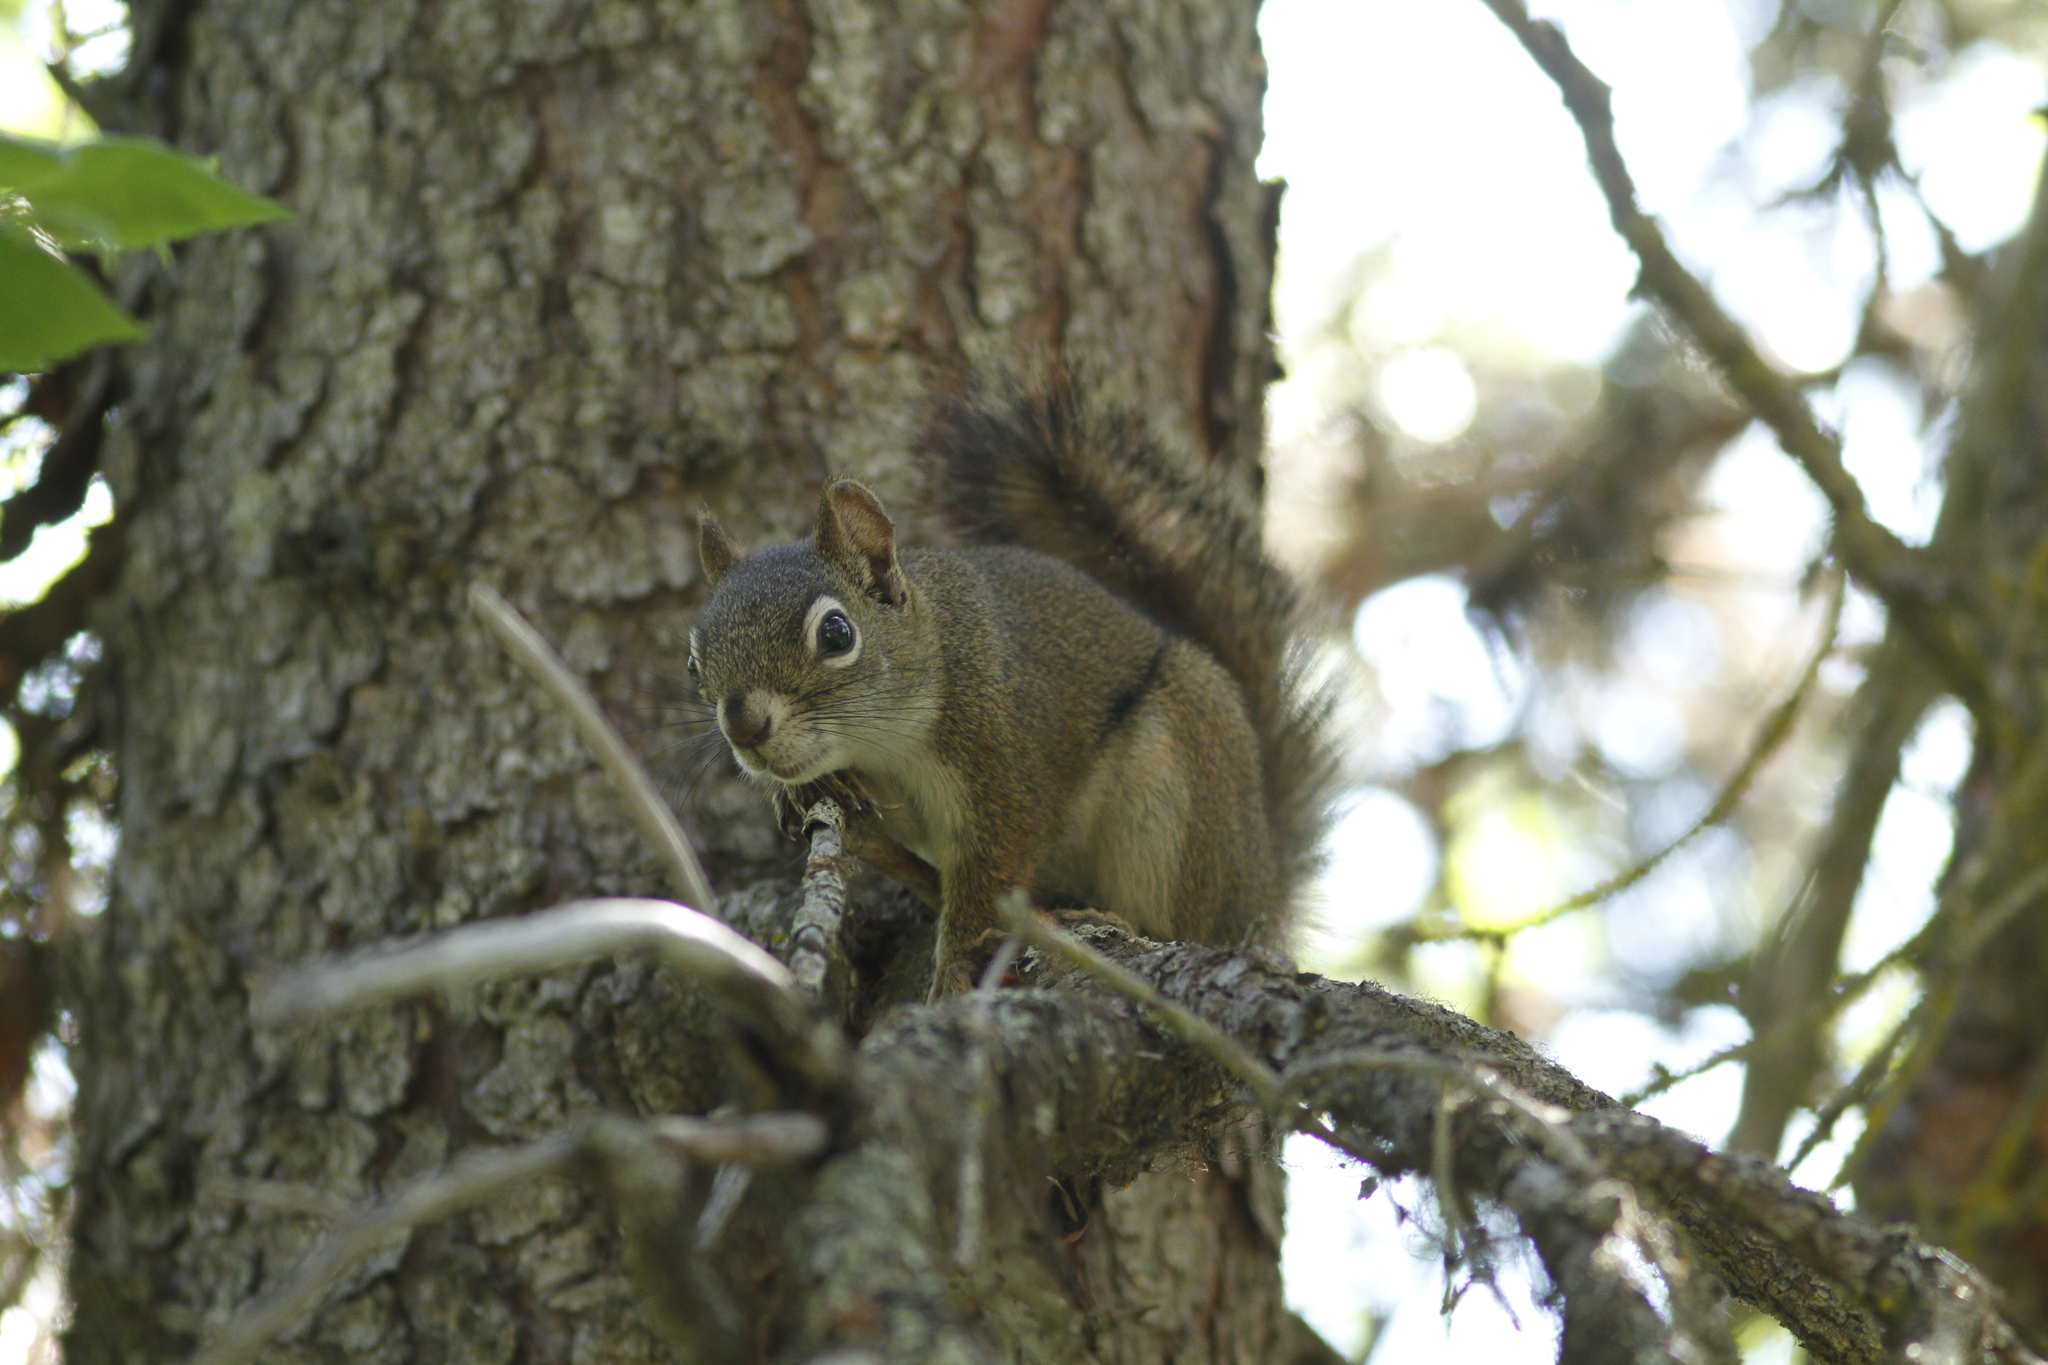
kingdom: Animalia
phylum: Chordata
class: Mammalia
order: Rodentia
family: Sciuridae
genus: Tamiasciurus
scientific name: Tamiasciurus hudsonicus
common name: Red squirrel
